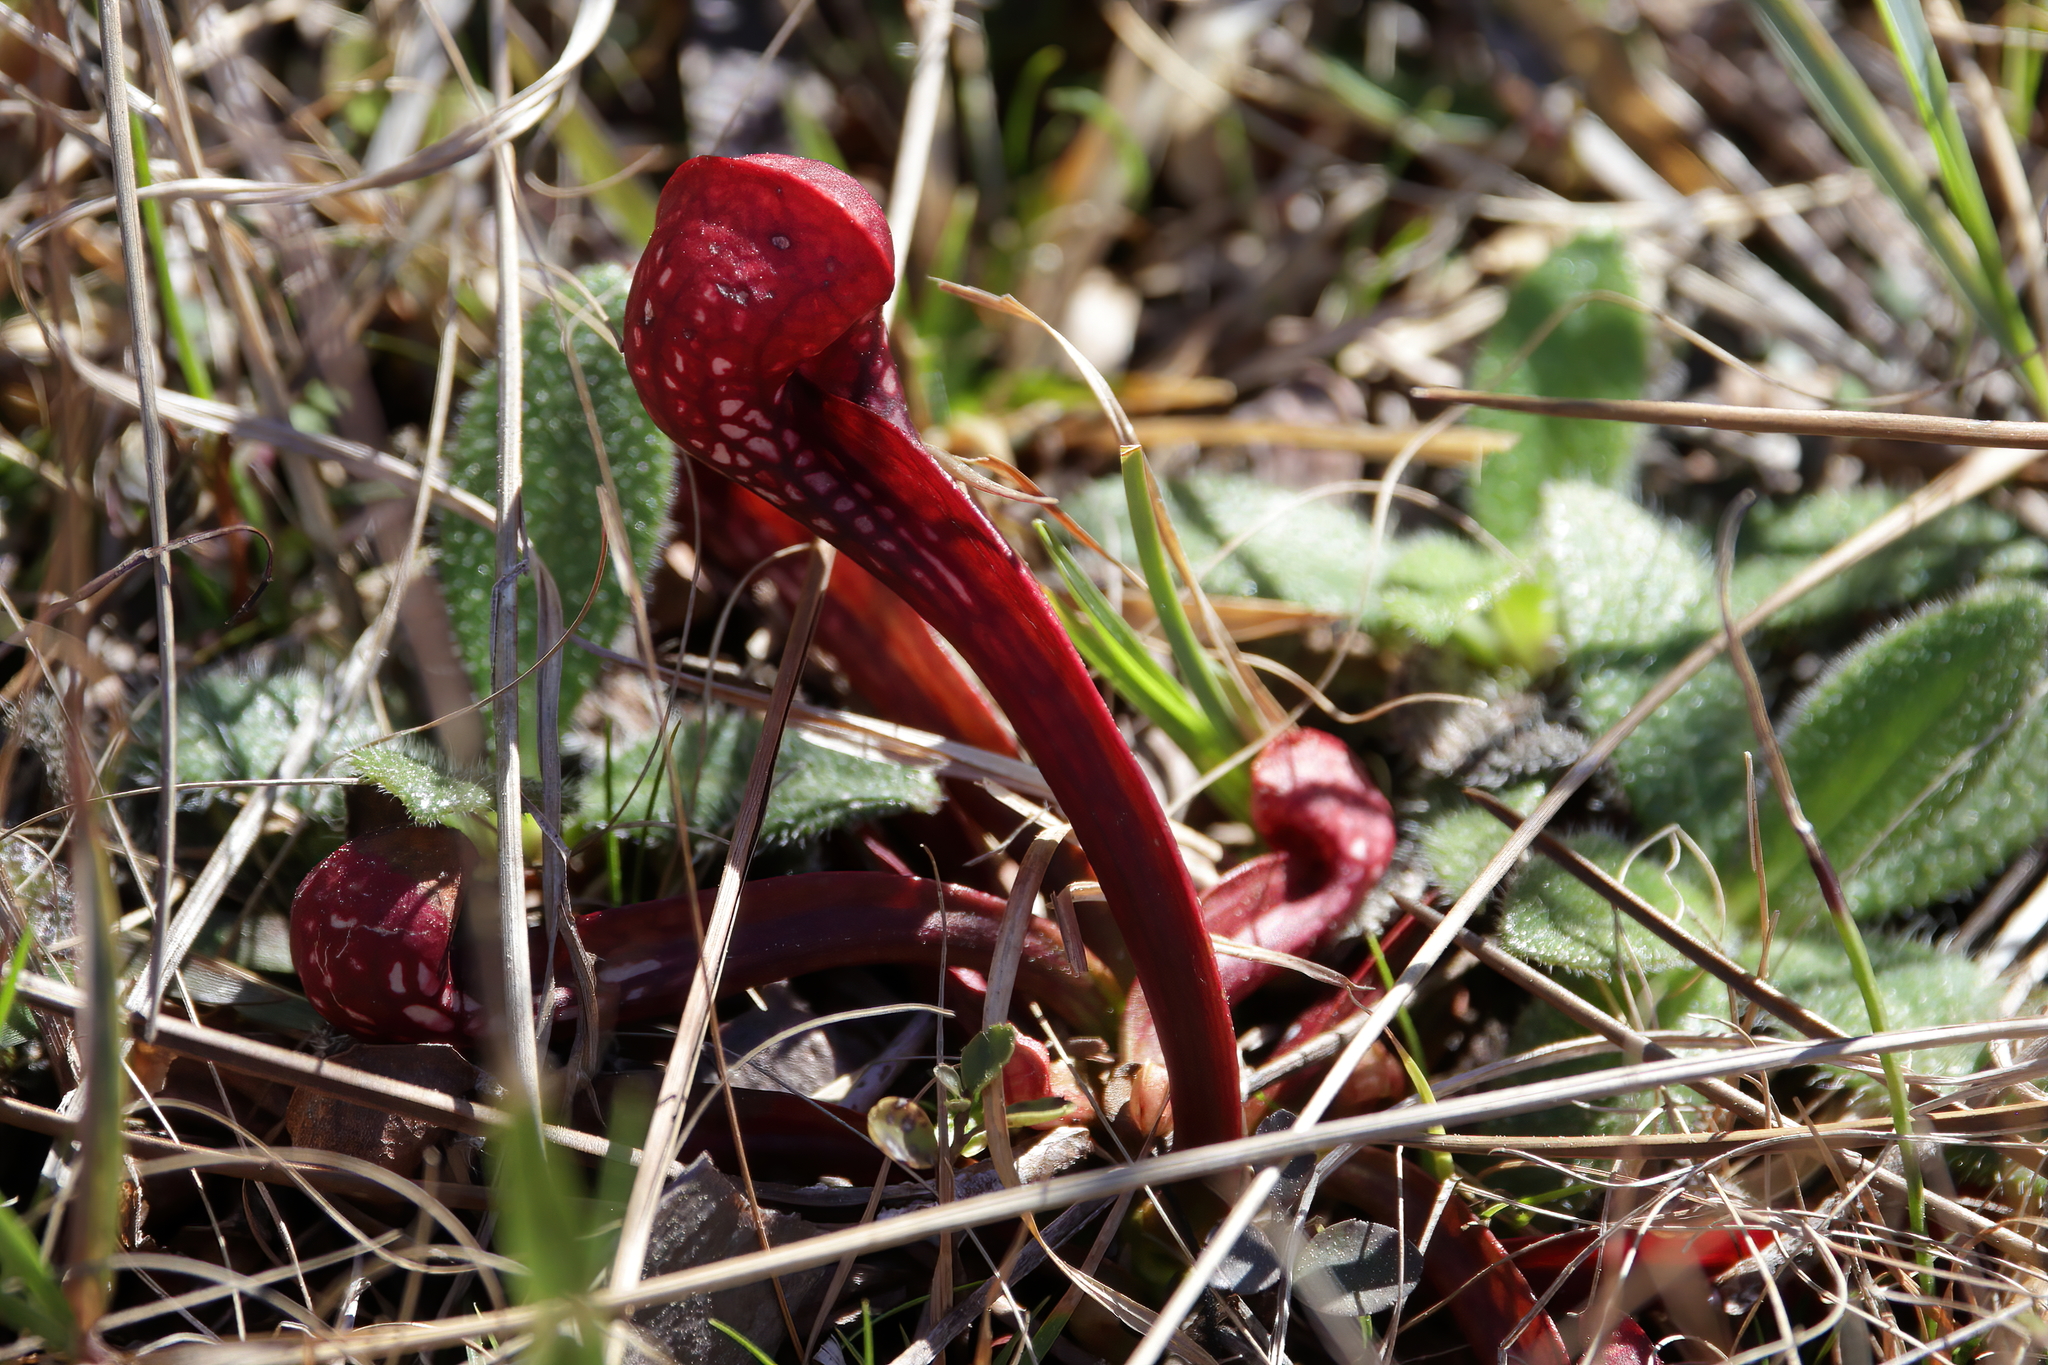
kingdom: Plantae
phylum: Tracheophyta
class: Magnoliopsida
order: Ericales
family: Sarraceniaceae
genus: Sarracenia
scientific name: Sarracenia psittacina
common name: Parrot pitcherplant
